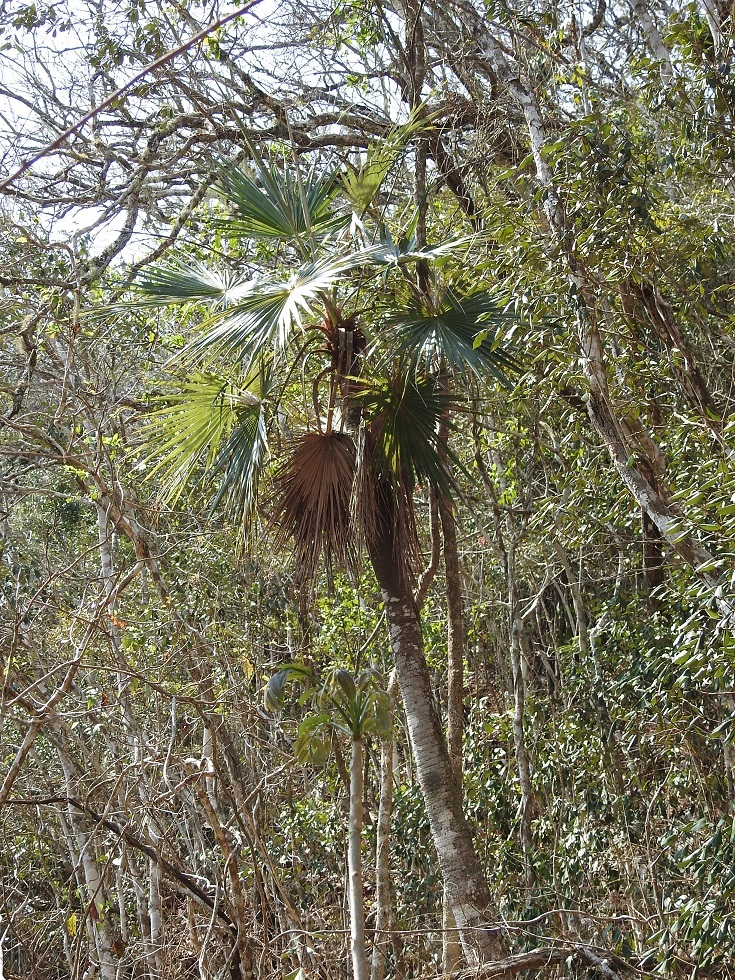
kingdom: Plantae
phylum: Tracheophyta
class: Liliopsida
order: Arecales
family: Arecaceae
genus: Brahea
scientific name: Brahea nitida
